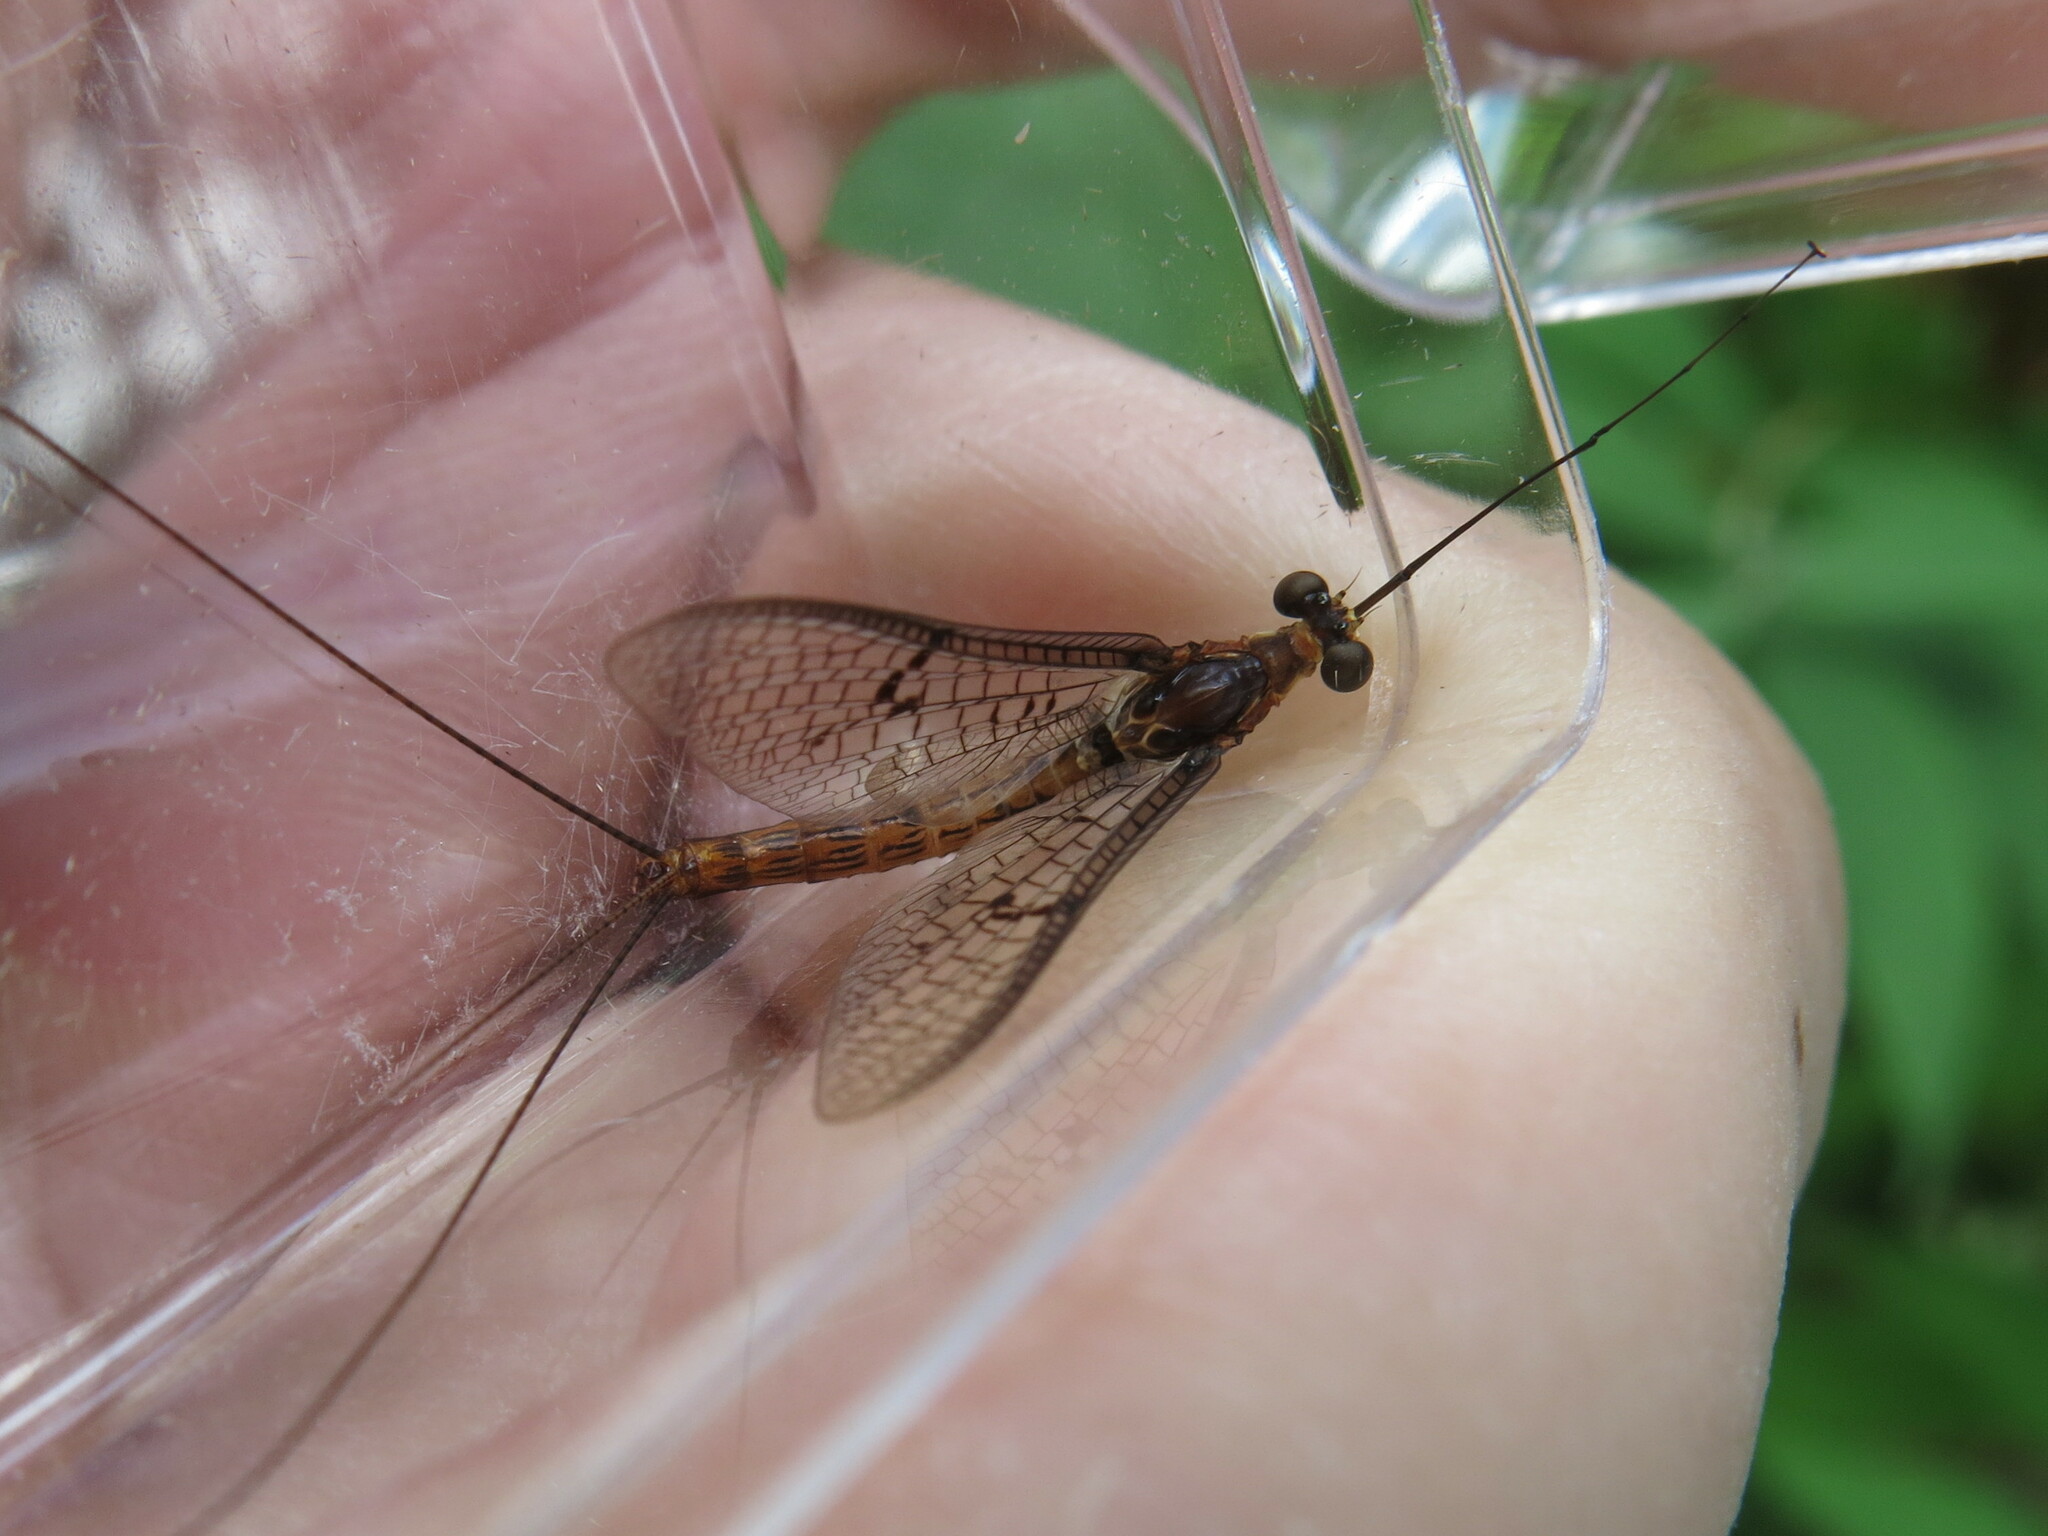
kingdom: Animalia
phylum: Arthropoda
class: Insecta
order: Ephemeroptera
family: Ephemeridae
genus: Ephemera
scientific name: Ephemera lineata
